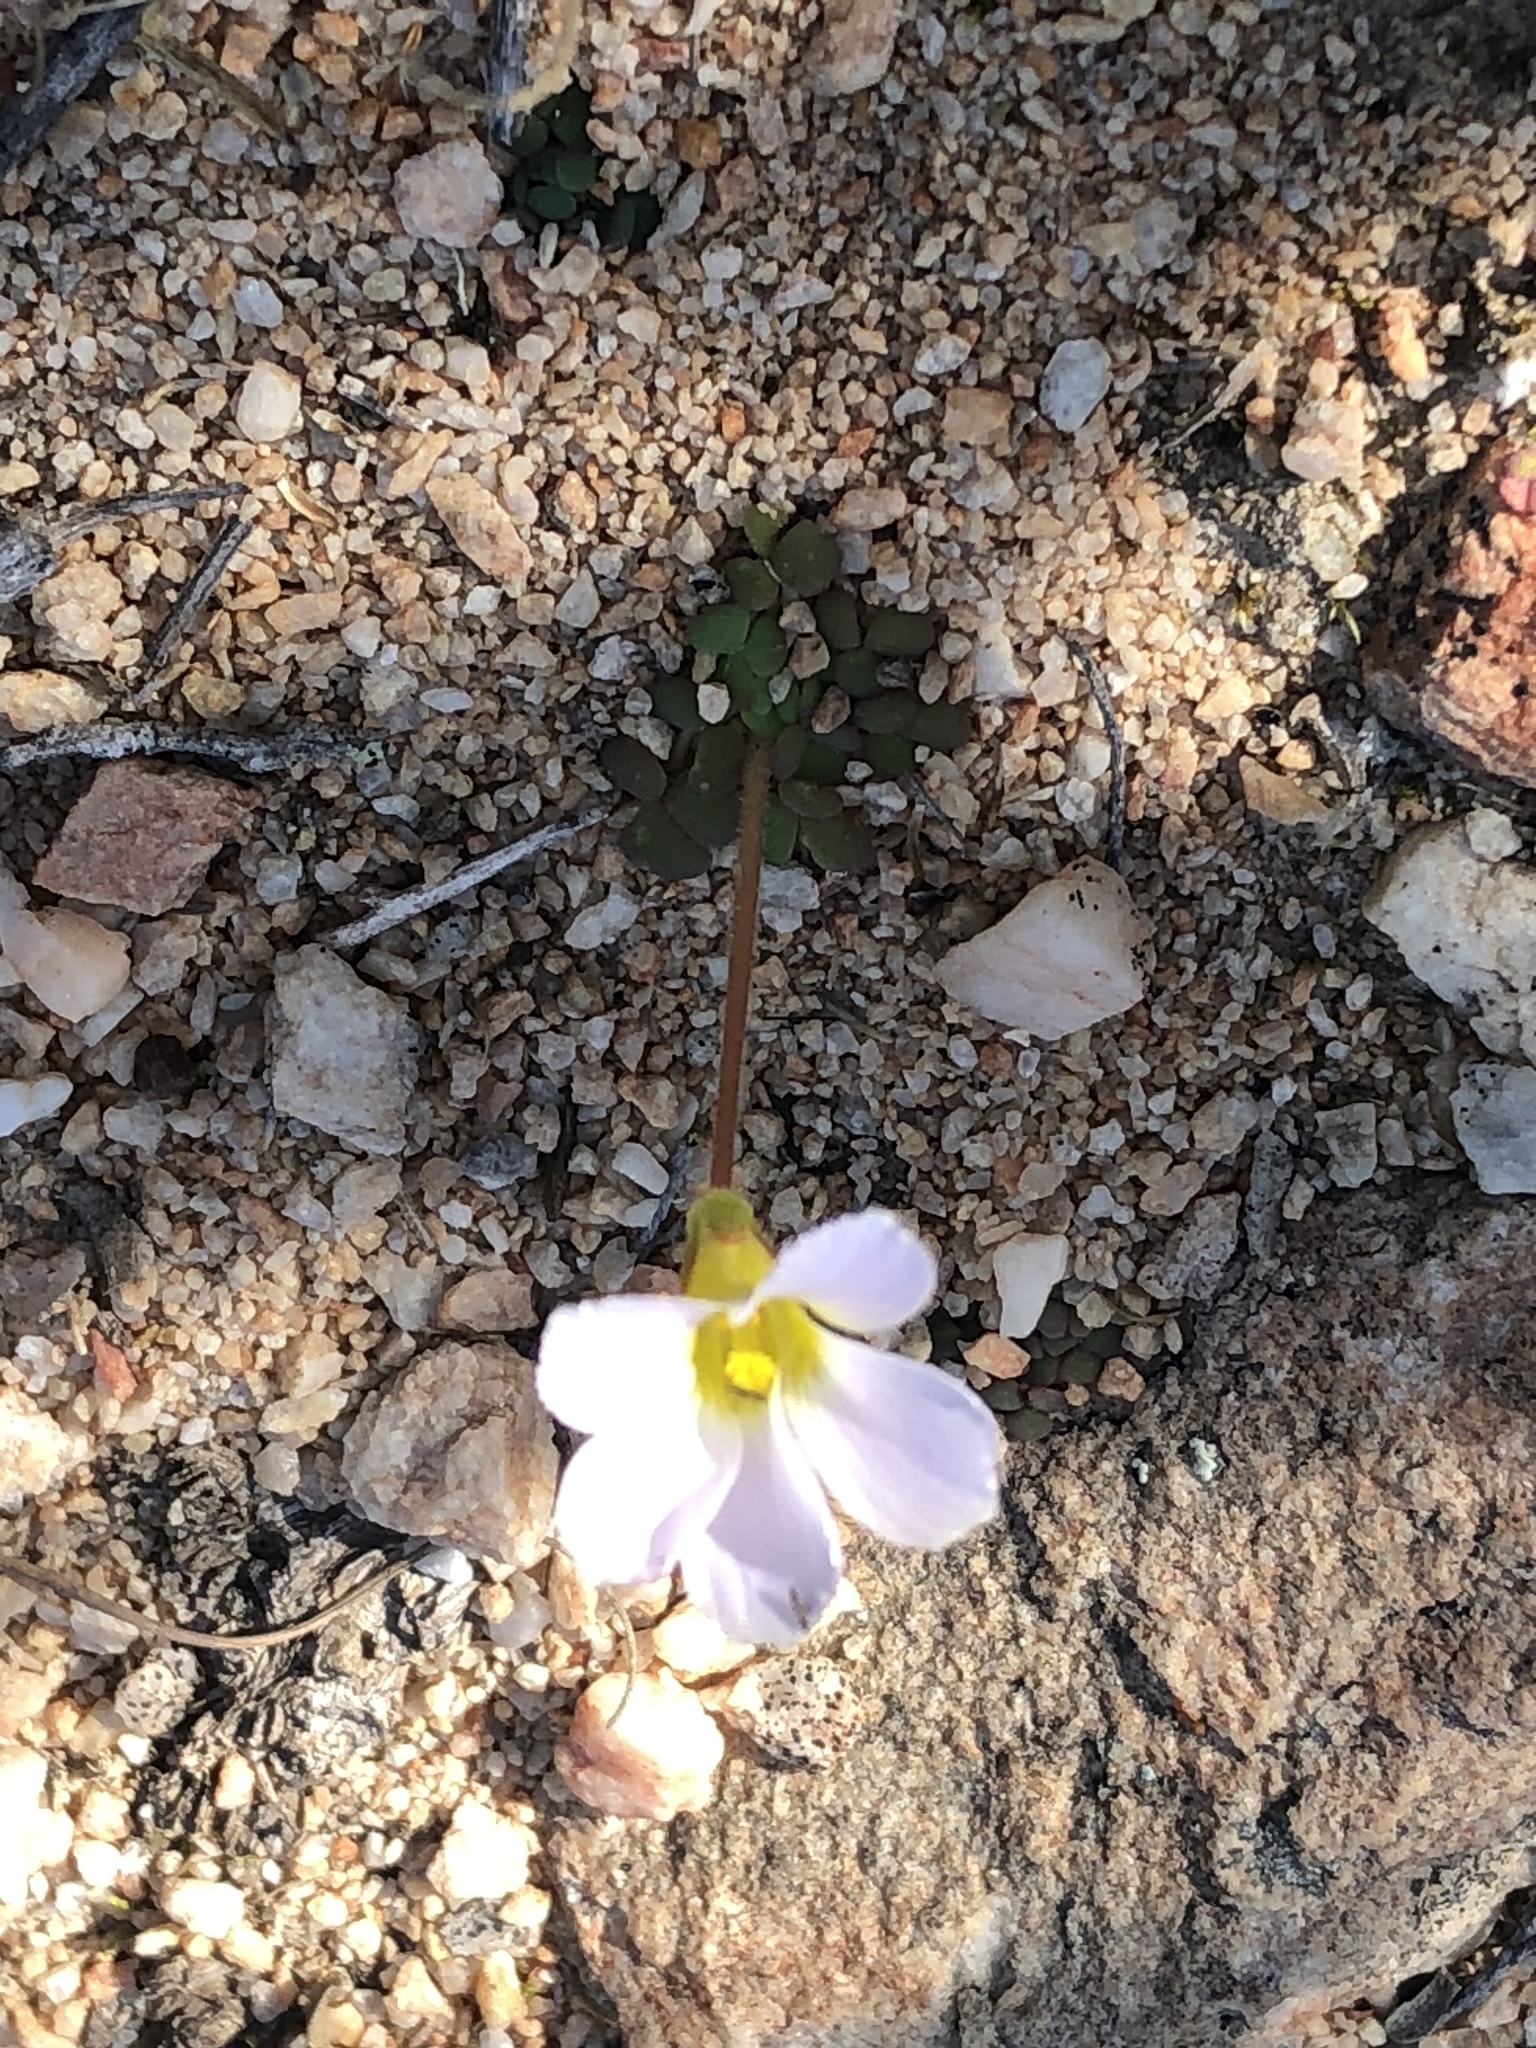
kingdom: Plantae
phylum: Tracheophyta
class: Magnoliopsida
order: Oxalidales
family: Oxalidaceae
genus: Oxalis
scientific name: Oxalis fergusoniae
